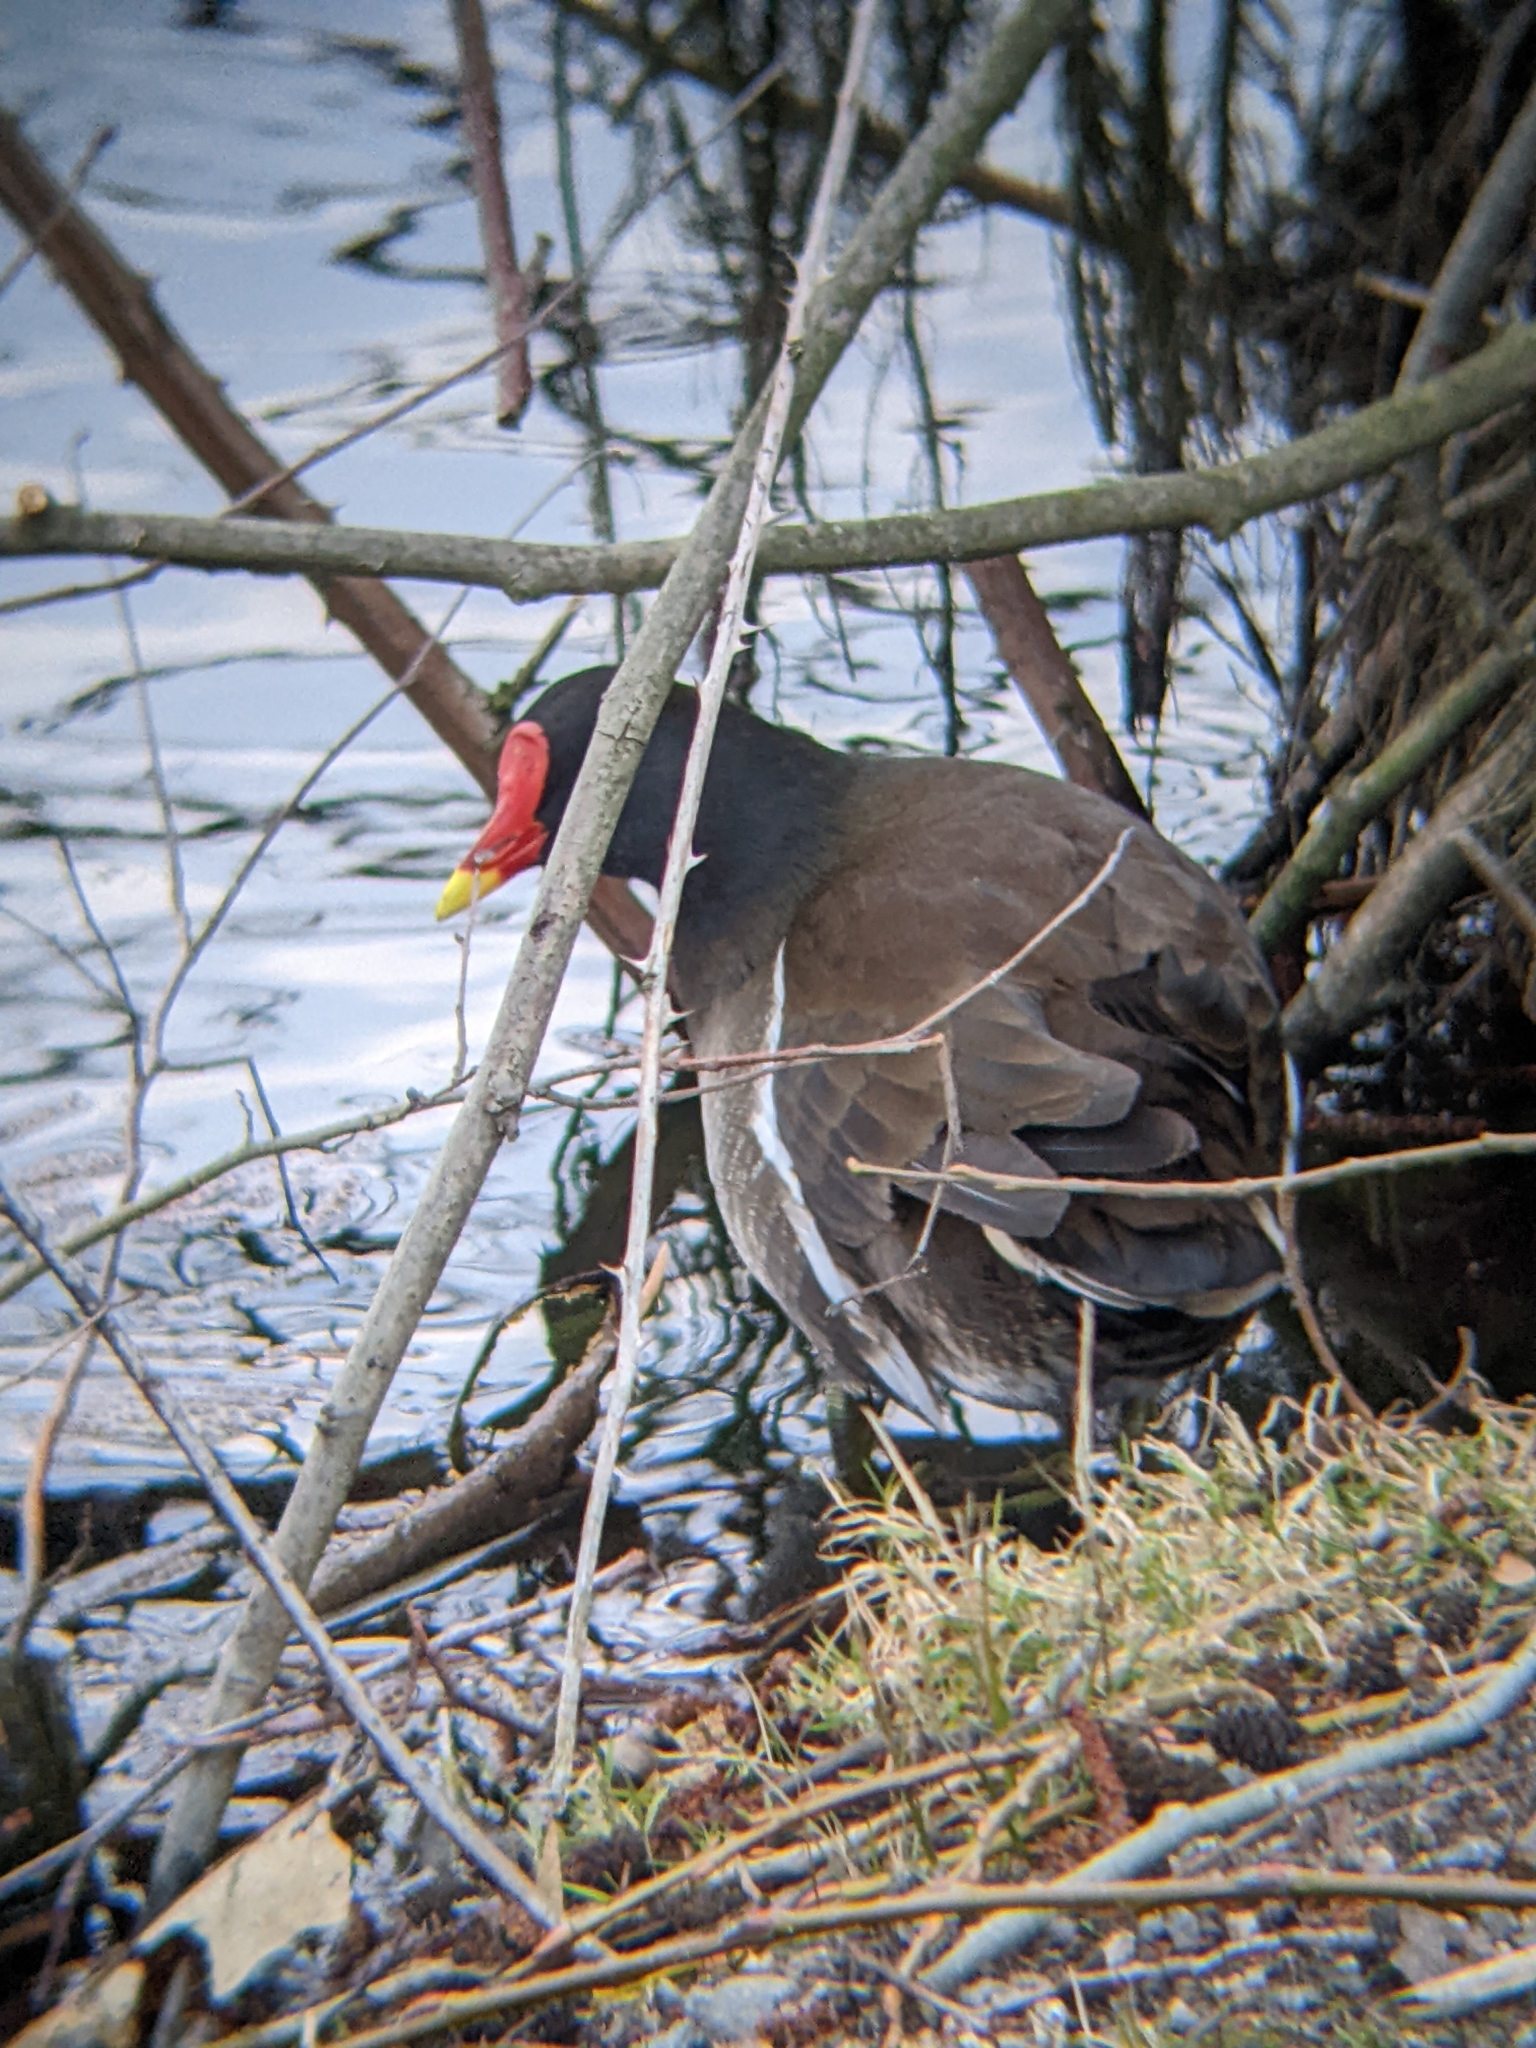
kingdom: Animalia
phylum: Chordata
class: Aves
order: Gruiformes
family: Rallidae
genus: Gallinula
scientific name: Gallinula chloropus
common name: Common moorhen
